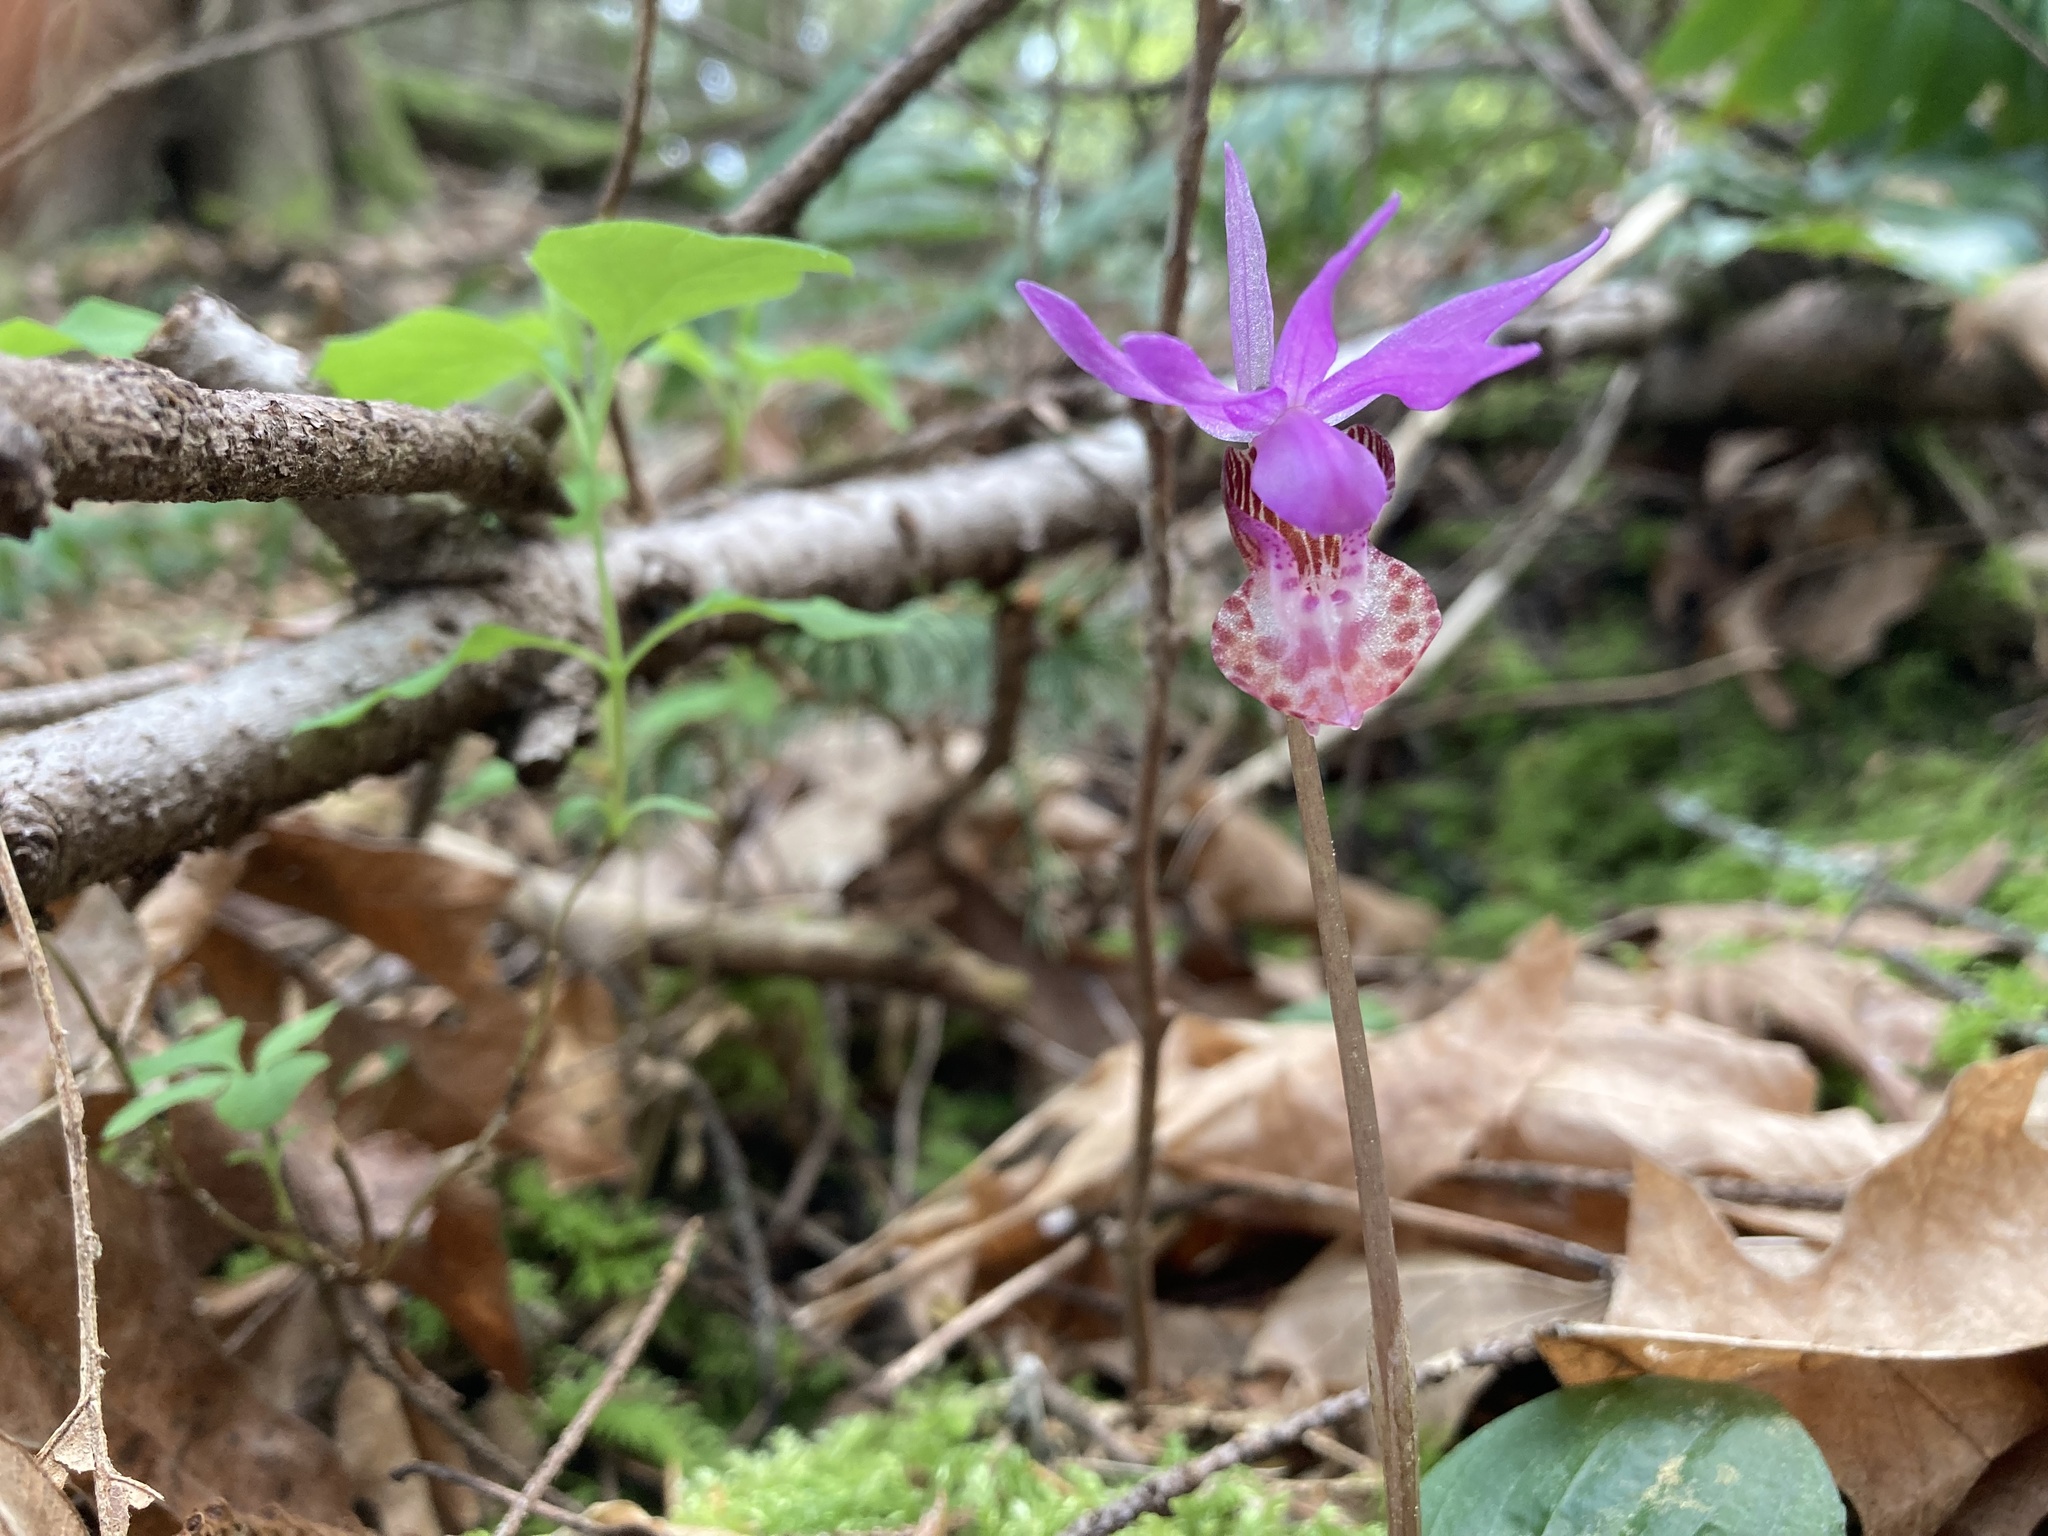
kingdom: Plantae
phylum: Tracheophyta
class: Liliopsida
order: Asparagales
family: Orchidaceae
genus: Calypso
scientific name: Calypso bulbosa
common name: Calypso
